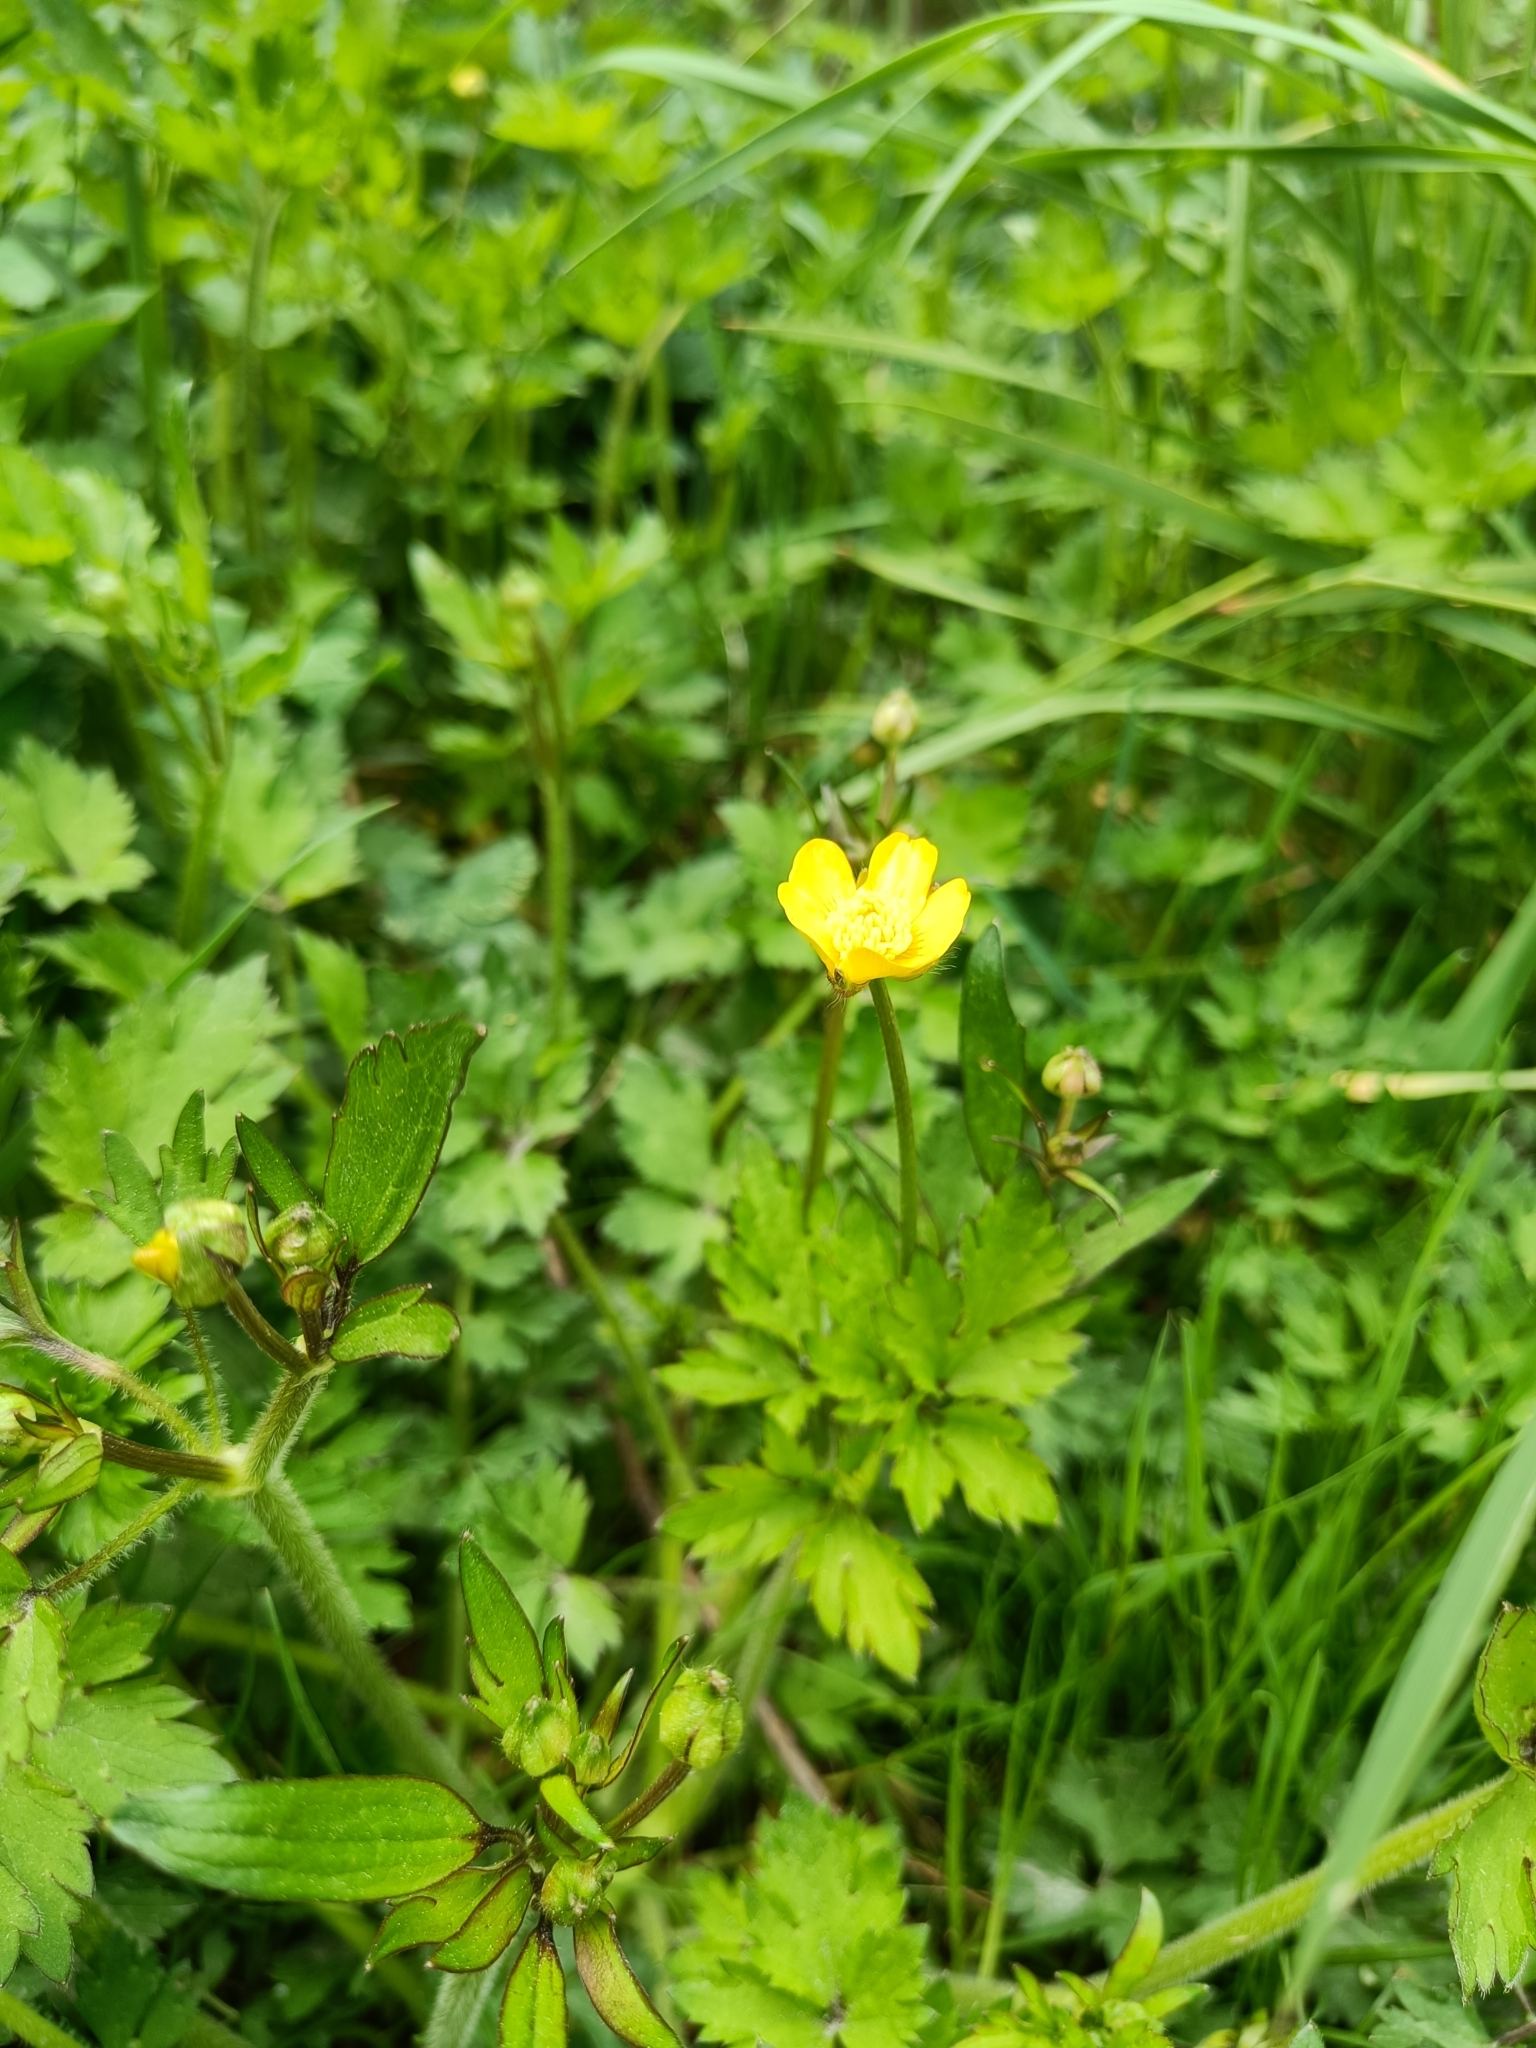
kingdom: Plantae
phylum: Tracheophyta
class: Magnoliopsida
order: Ranunculales
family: Ranunculaceae
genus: Ranunculus
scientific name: Ranunculus repens
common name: Creeping buttercup
